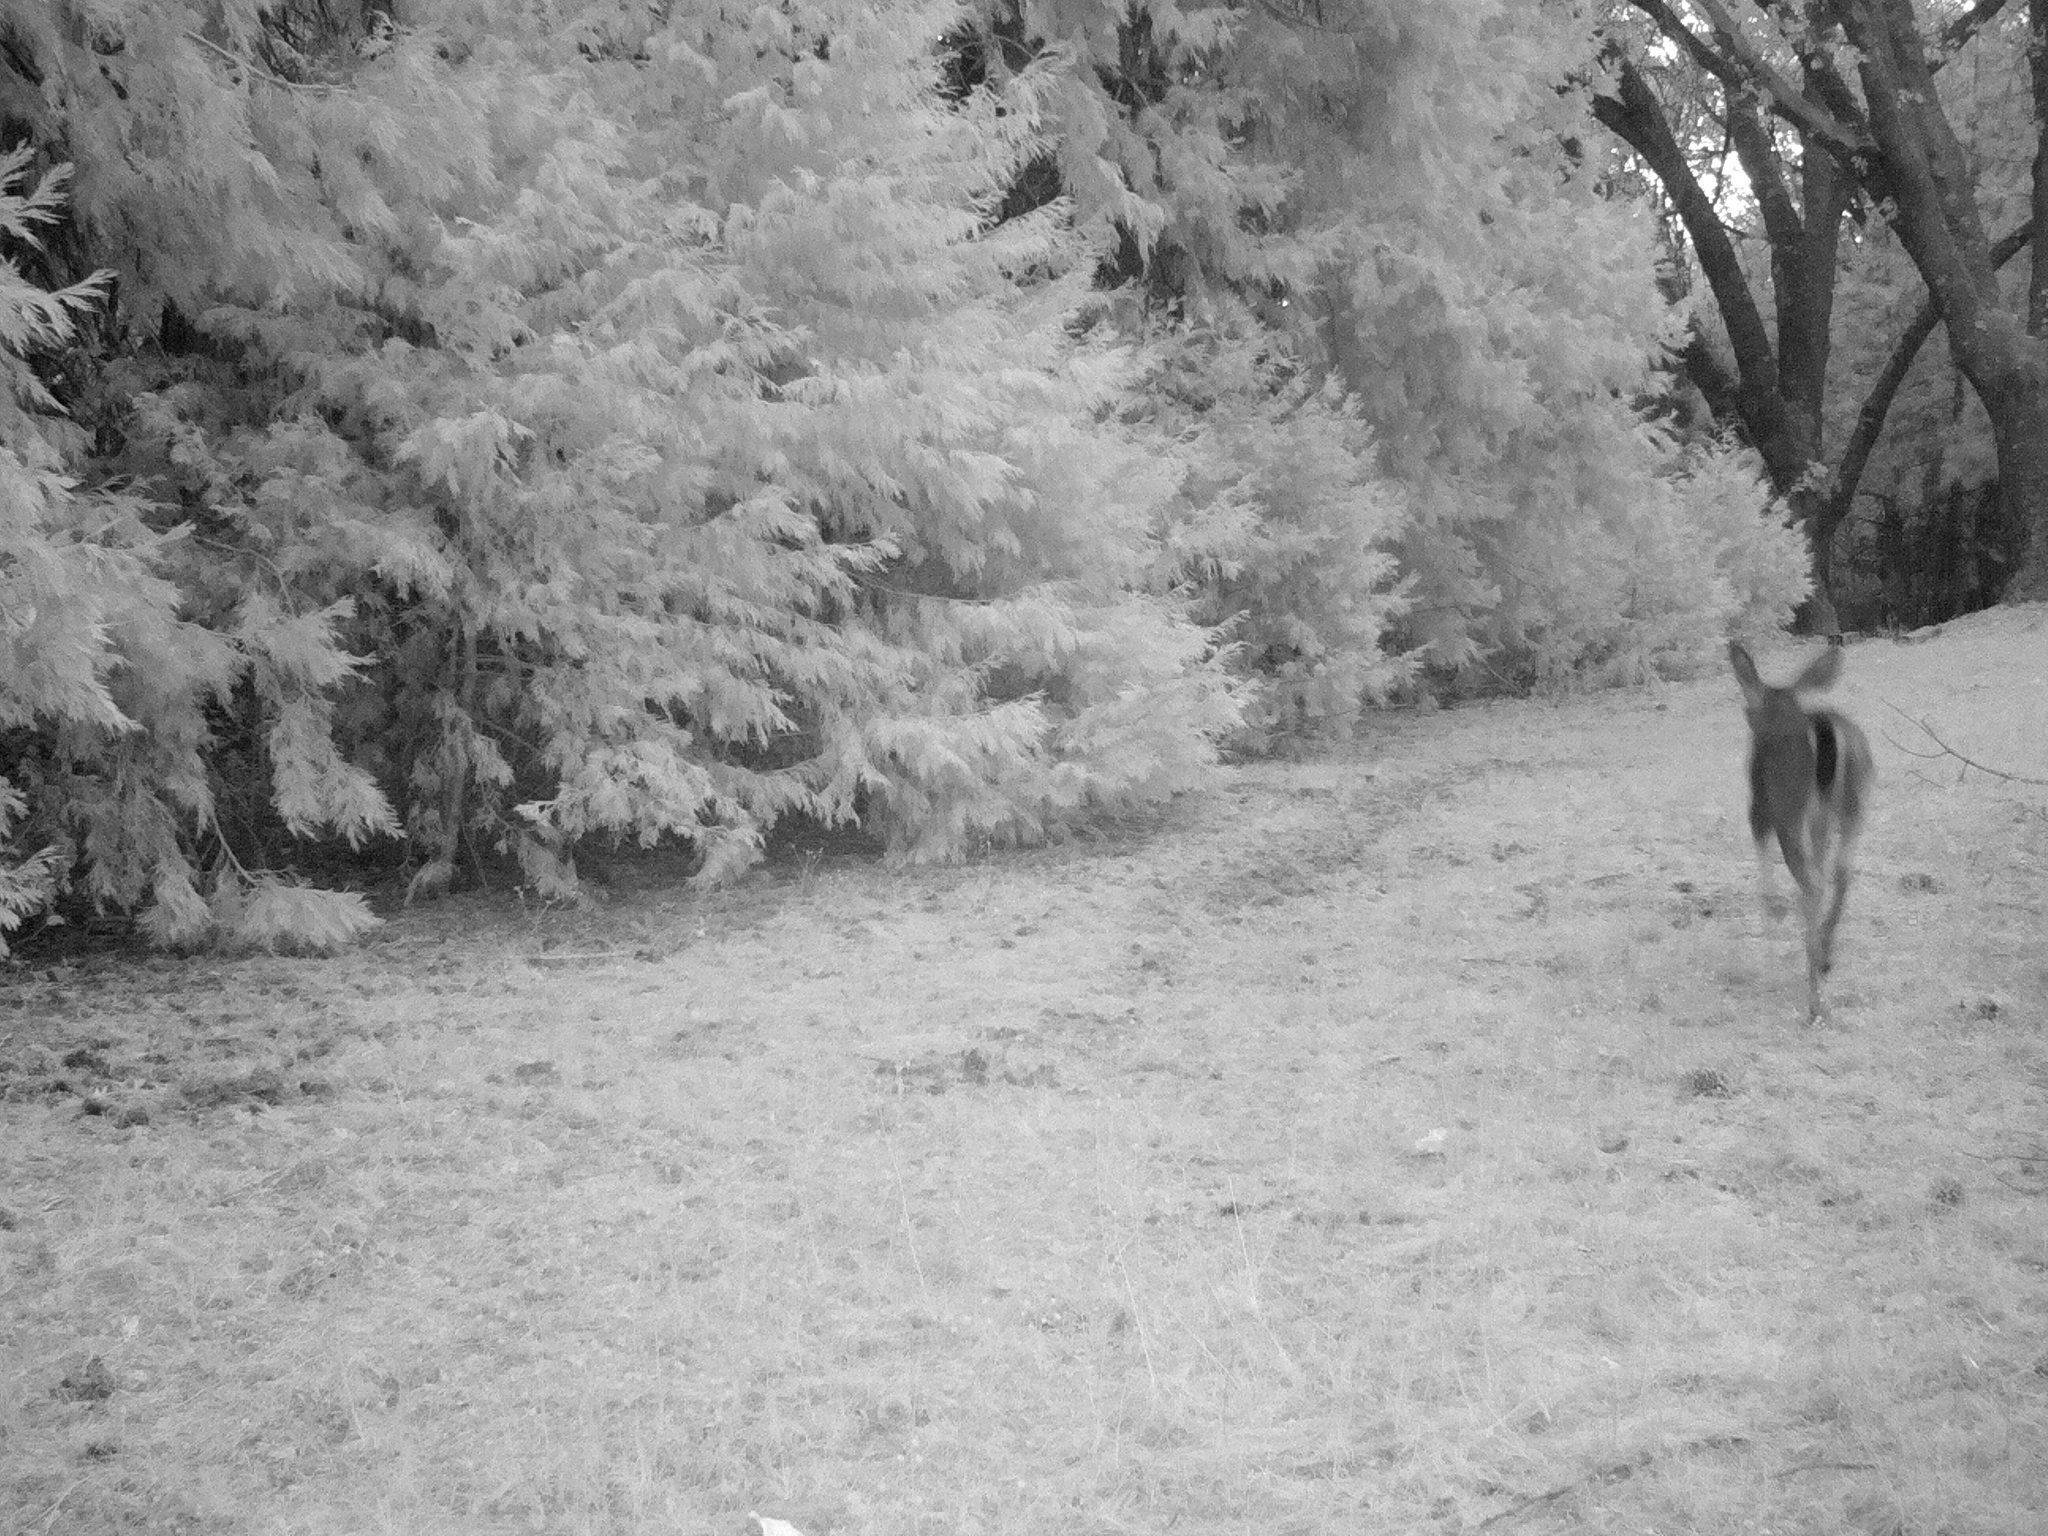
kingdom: Animalia
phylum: Chordata
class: Mammalia
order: Artiodactyla
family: Cervidae
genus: Odocoileus
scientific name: Odocoileus hemionus
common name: Mule deer
